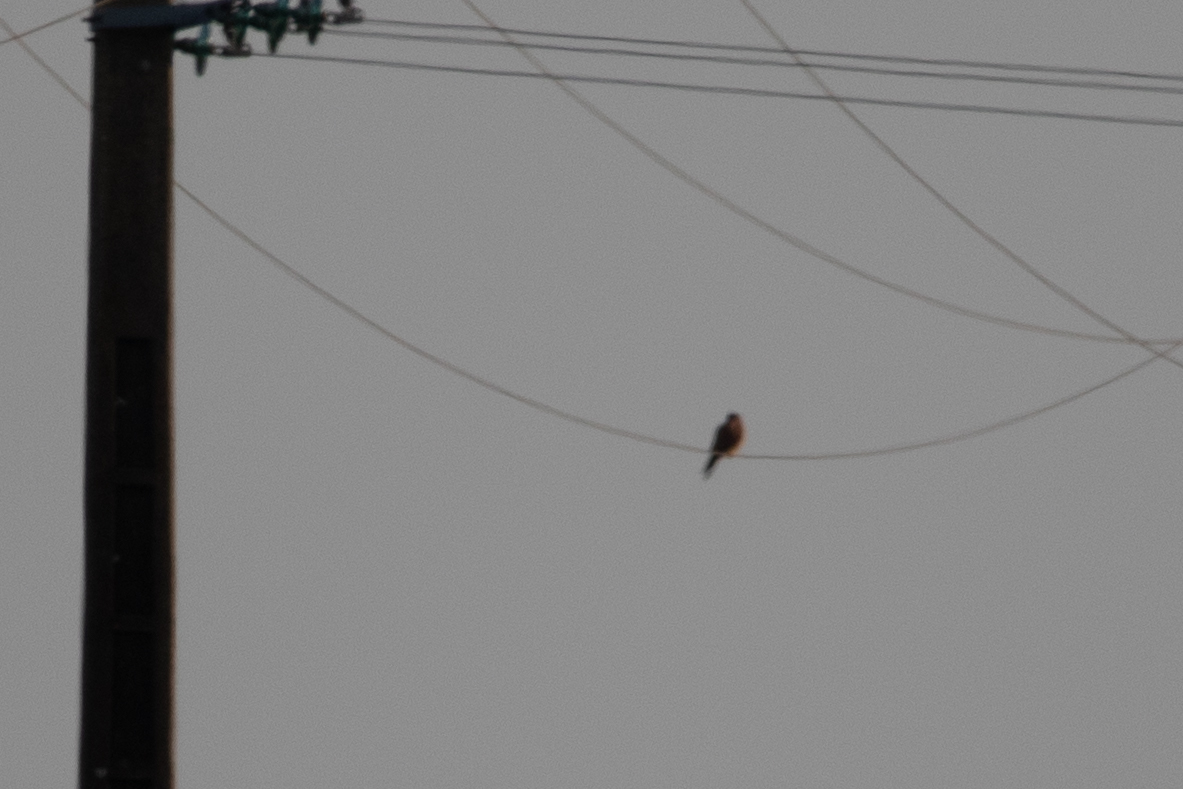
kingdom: Animalia
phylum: Chordata
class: Aves
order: Falconiformes
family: Falconidae
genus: Falco
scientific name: Falco tinnunculus
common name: Common kestrel
